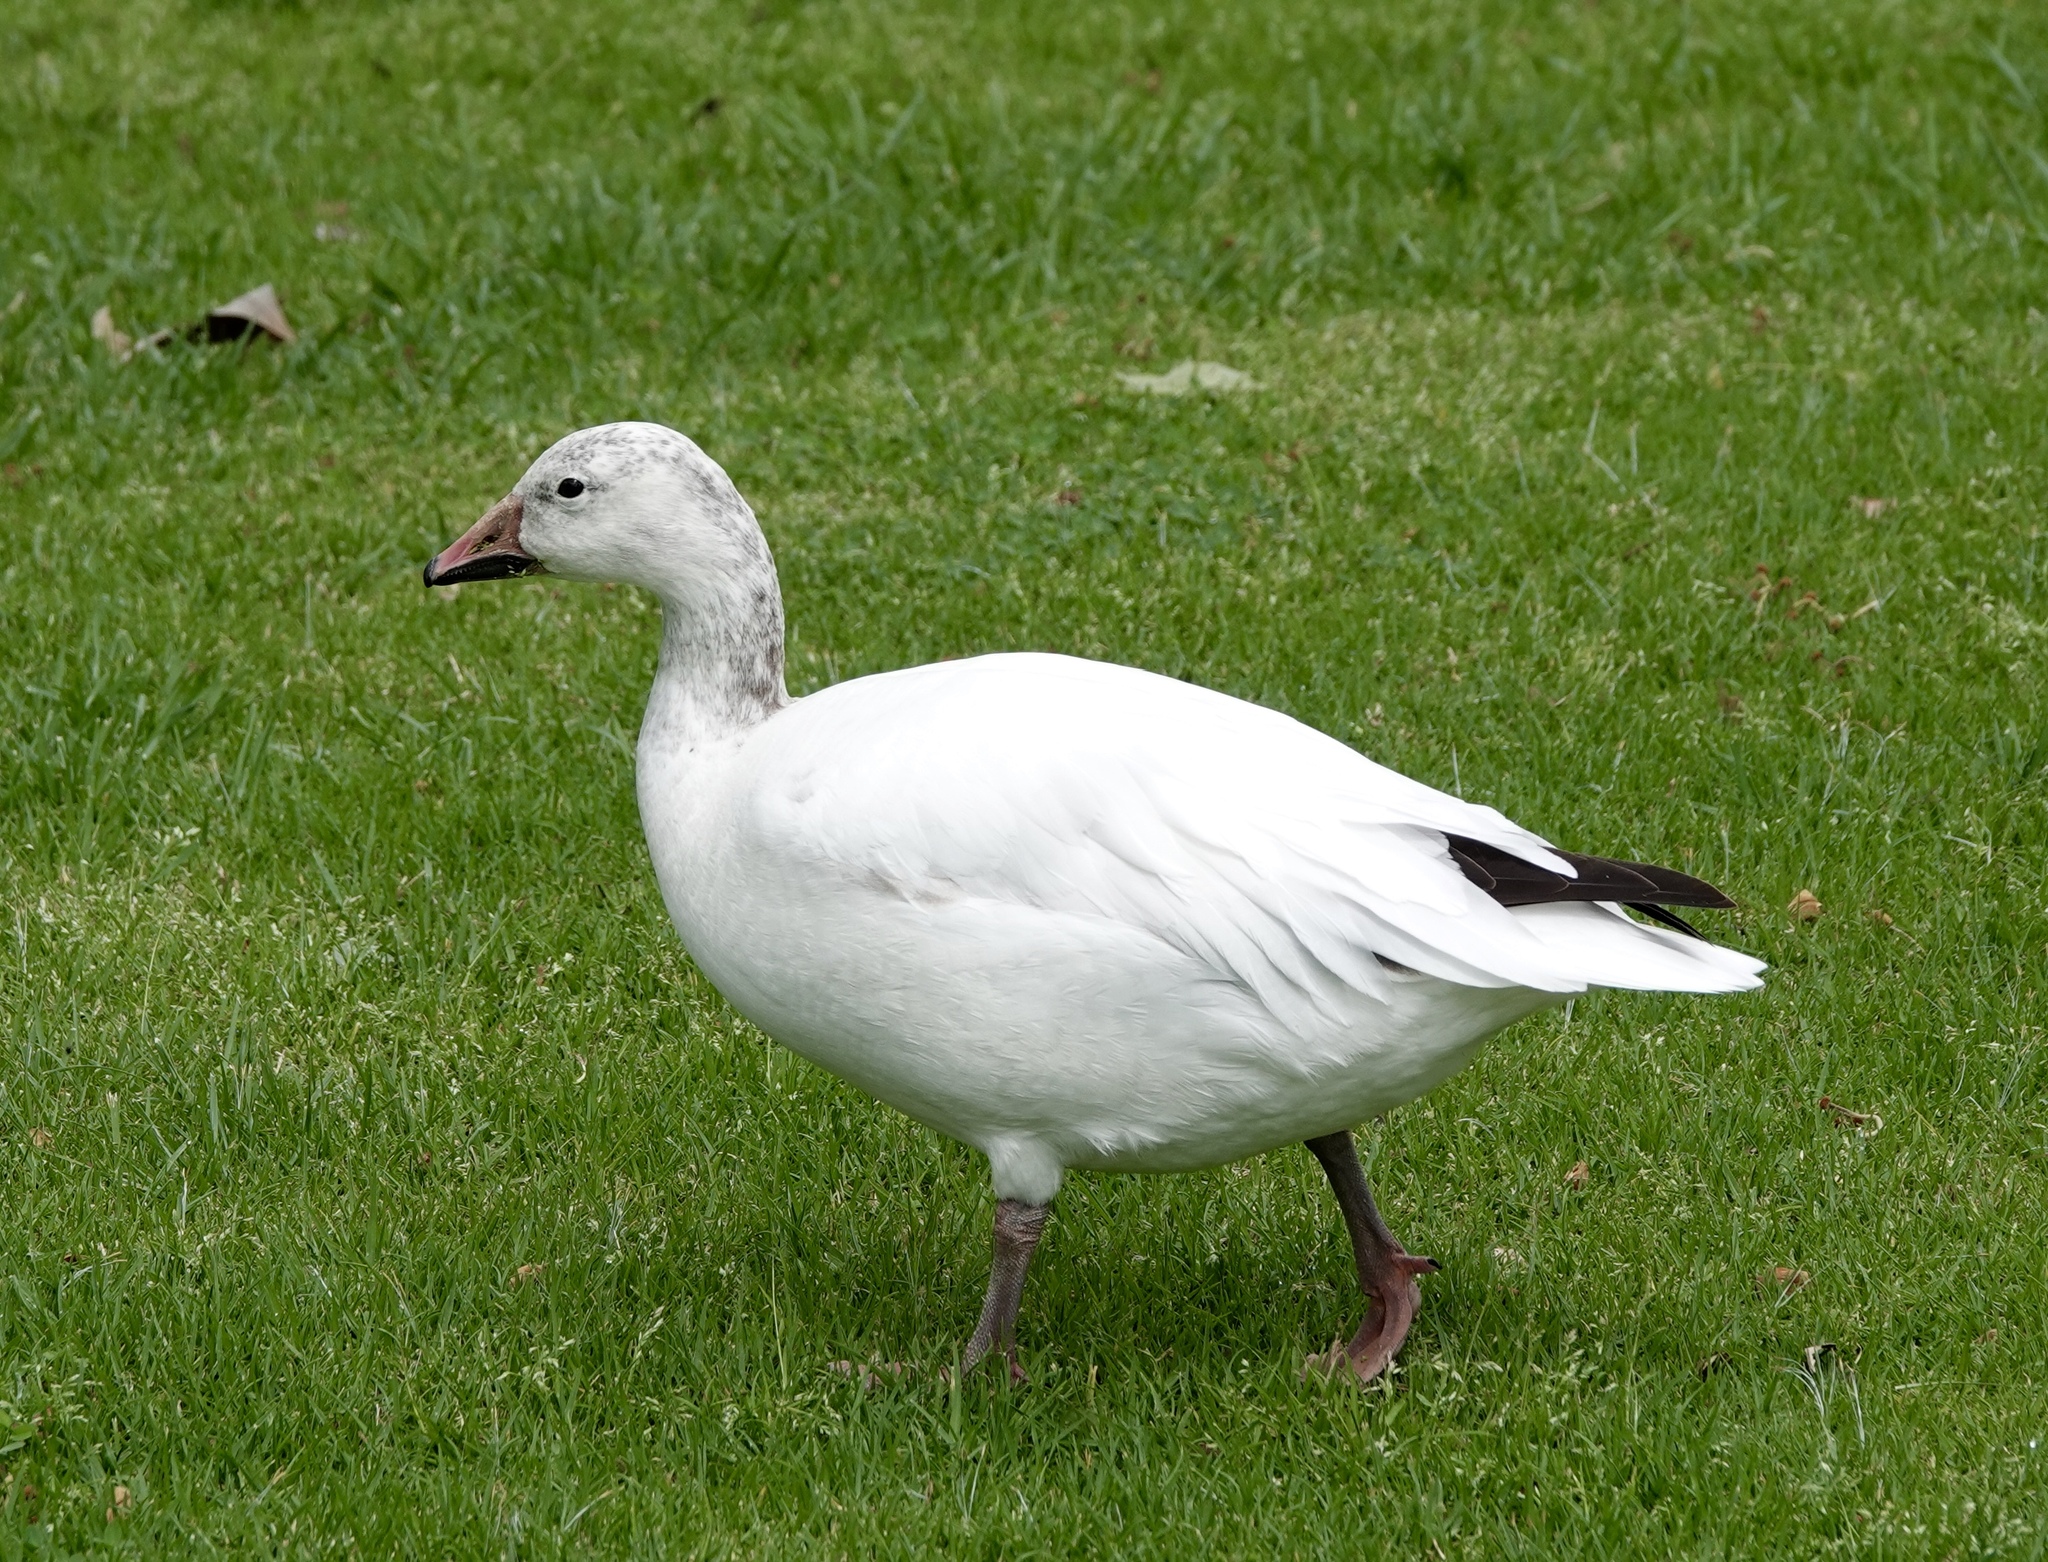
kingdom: Animalia
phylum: Chordata
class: Aves
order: Anseriformes
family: Anatidae
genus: Anser
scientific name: Anser caerulescens
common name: Snow goose
